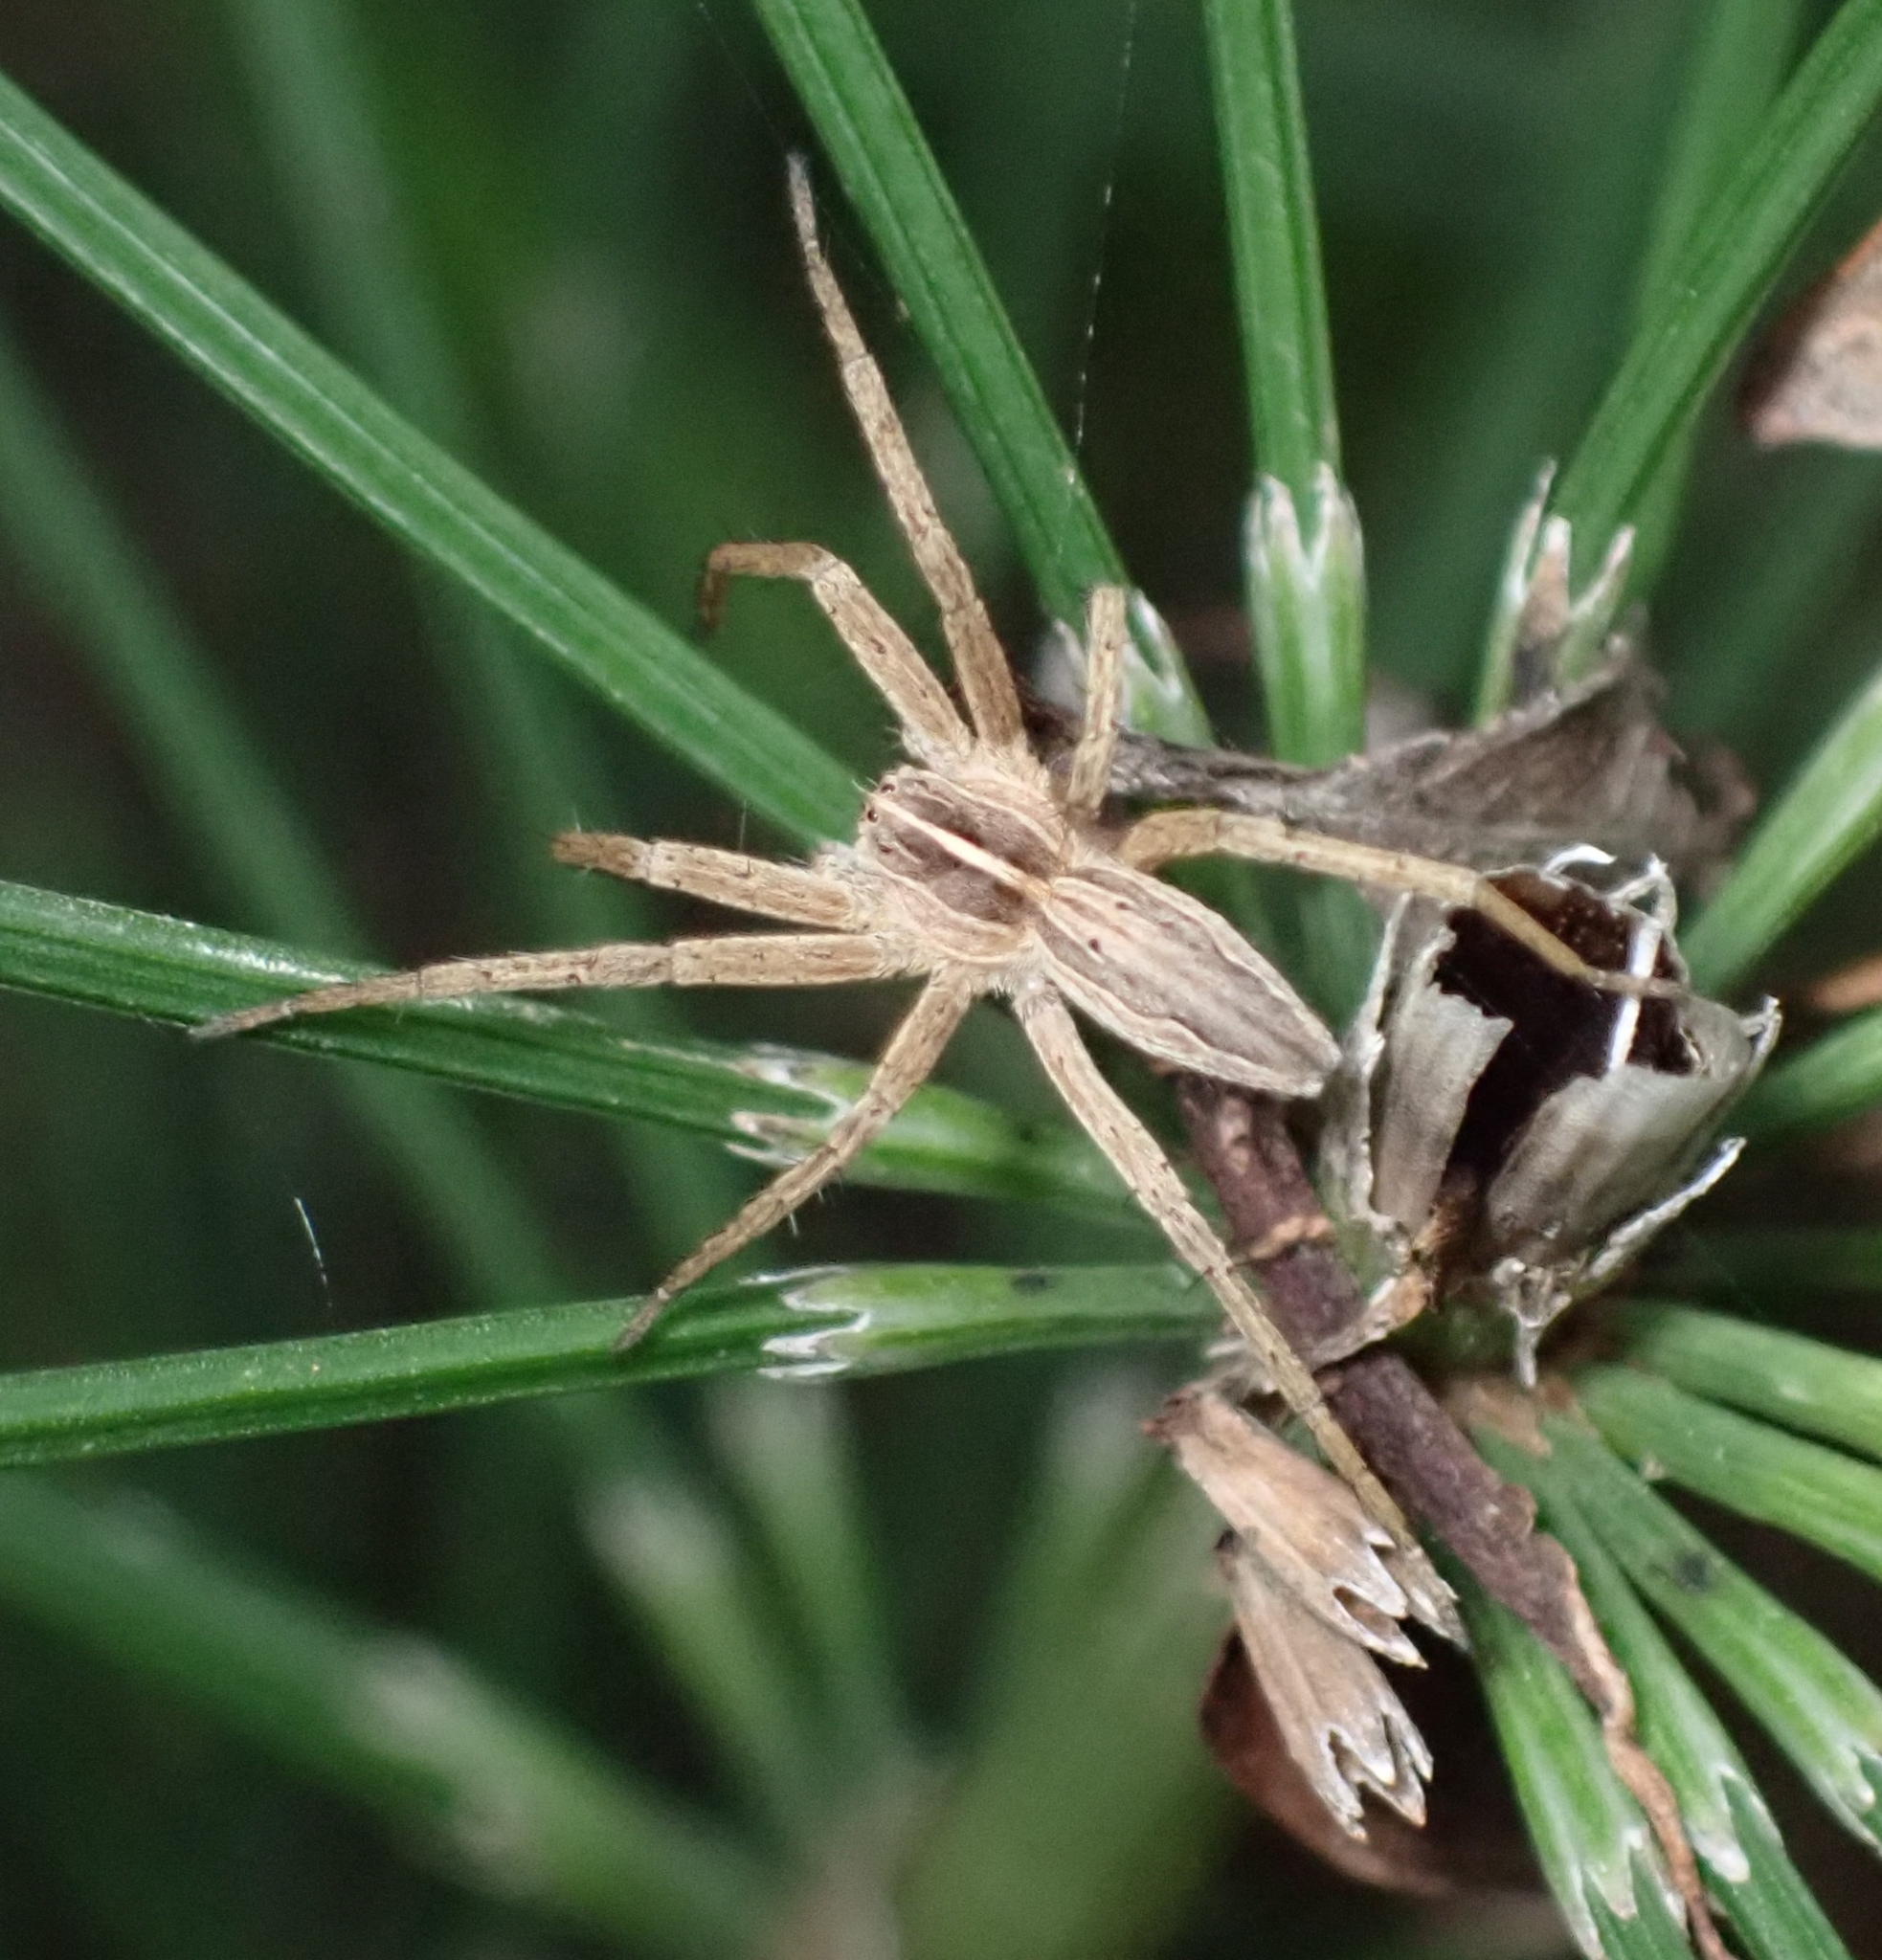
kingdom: Animalia
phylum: Arthropoda
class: Arachnida
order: Araneae
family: Pisauridae
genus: Pisaura
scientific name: Pisaura mirabilis
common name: Tent spider
